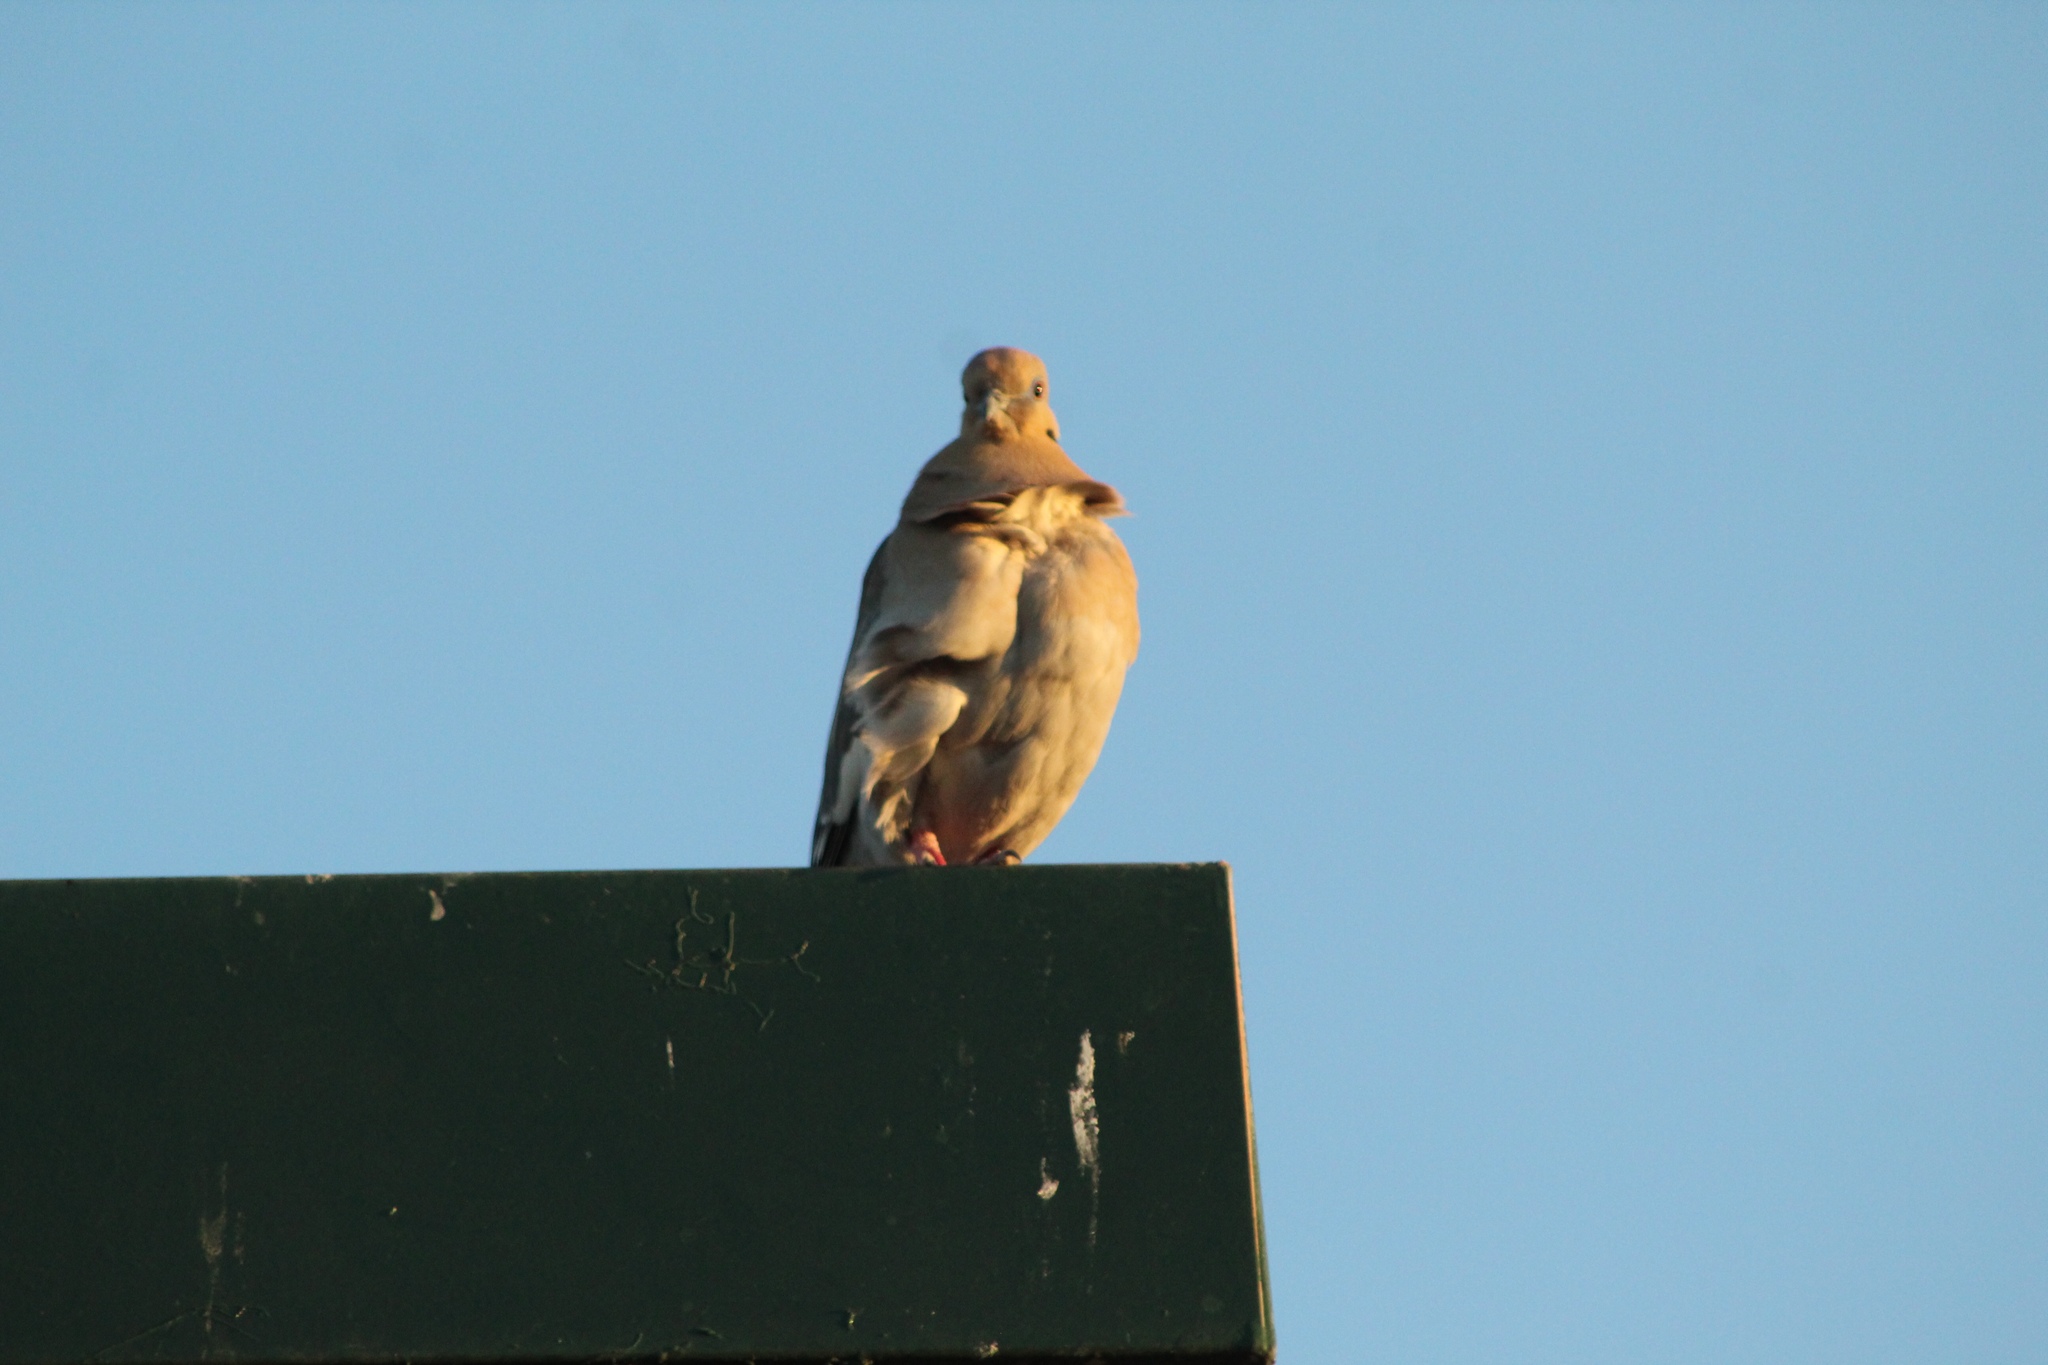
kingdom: Animalia
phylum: Chordata
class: Aves
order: Columbiformes
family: Columbidae
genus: Zenaida
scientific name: Zenaida asiatica
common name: White-winged dove
